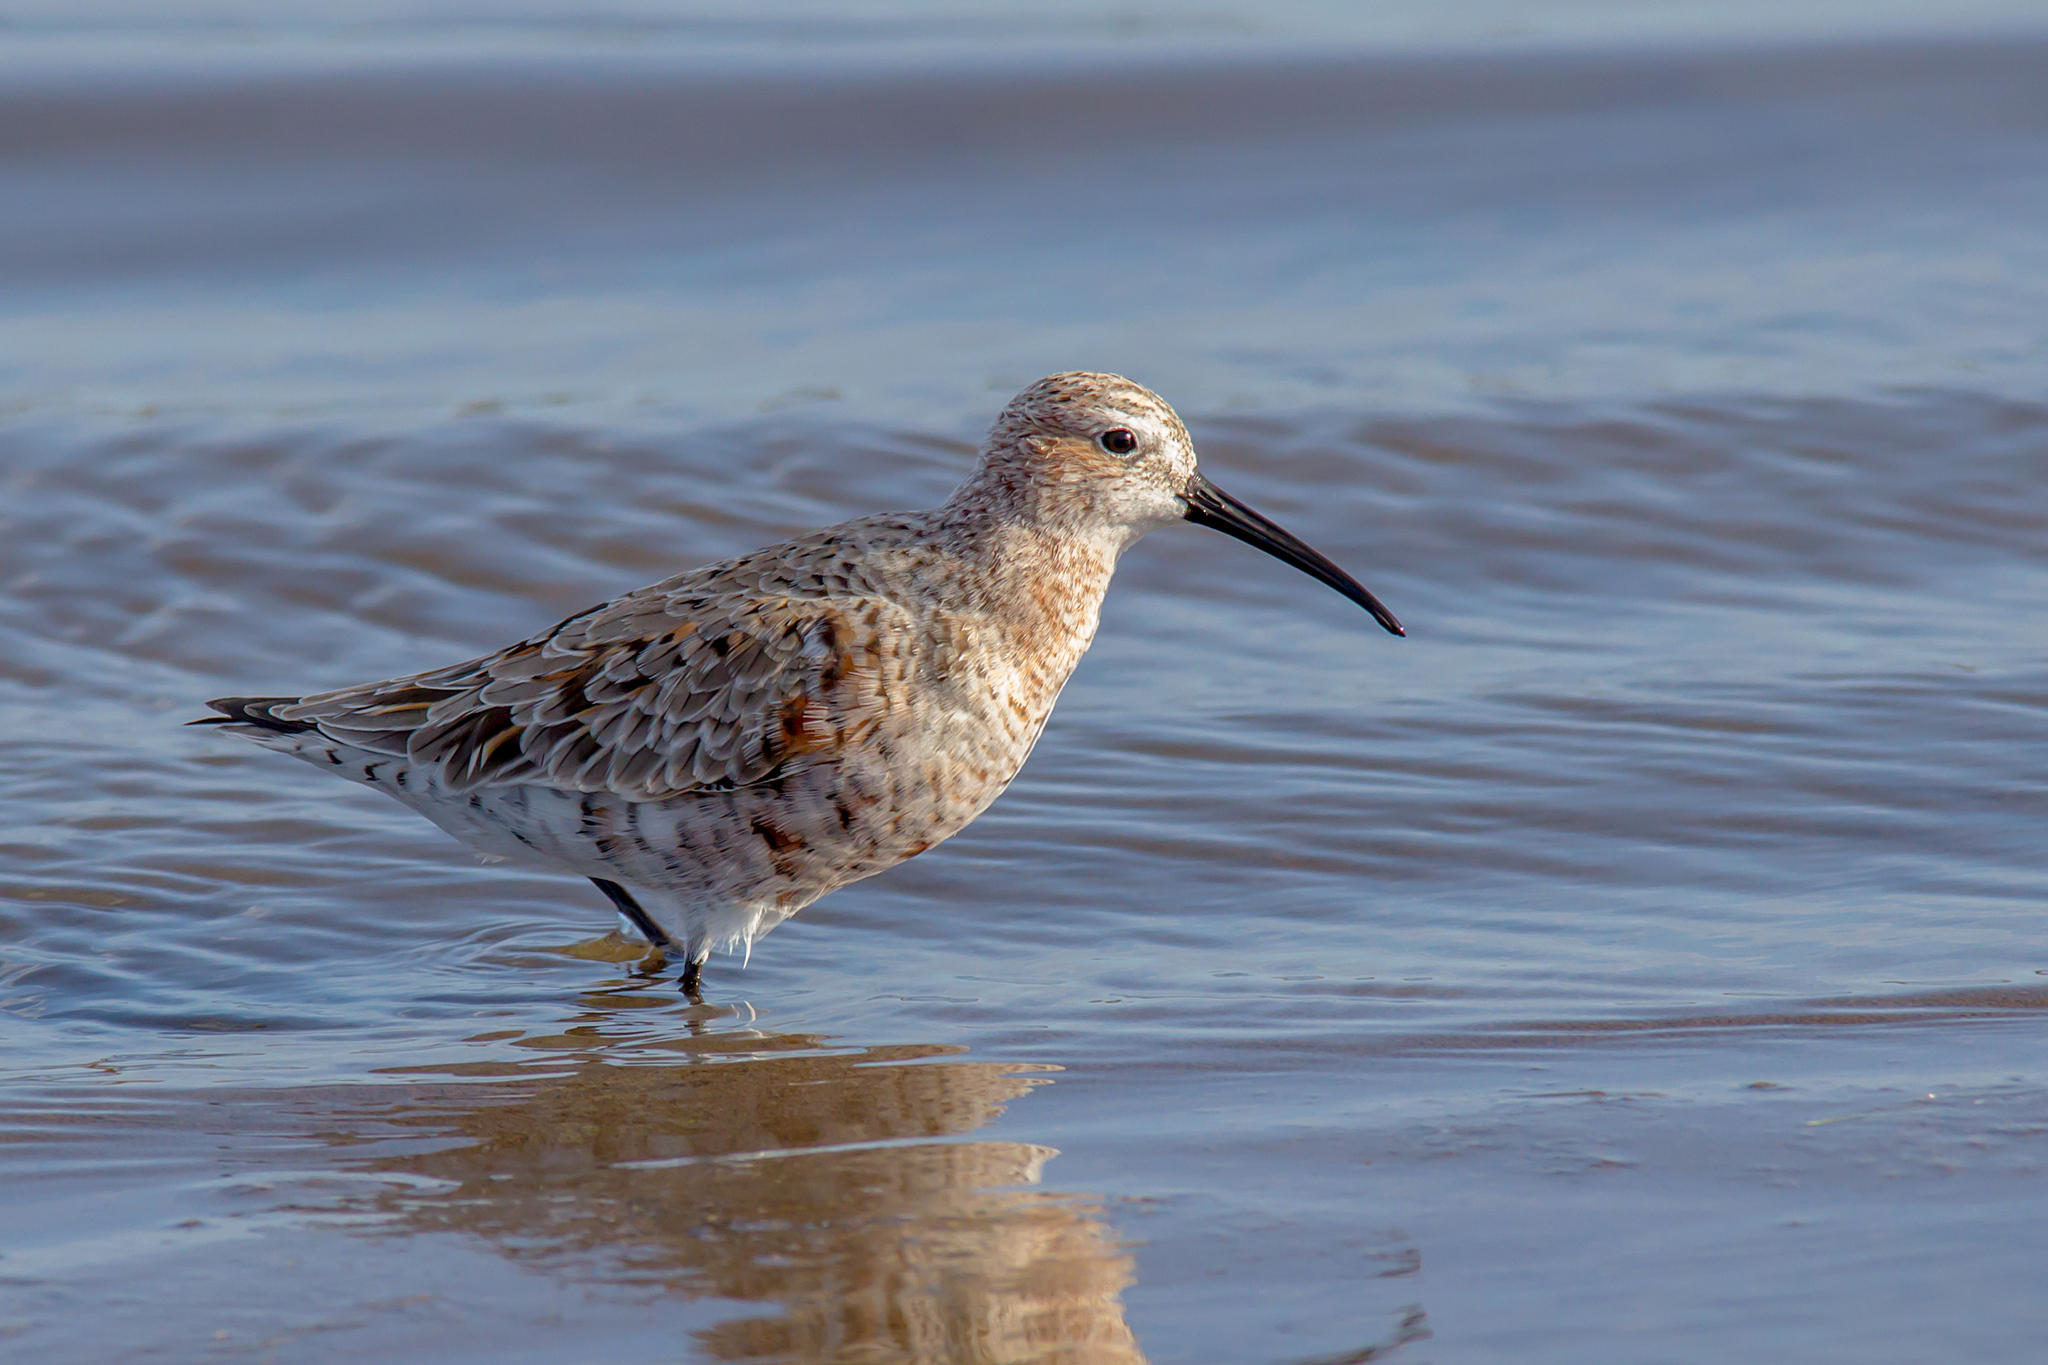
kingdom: Animalia
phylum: Chordata
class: Aves
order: Charadriiformes
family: Scolopacidae
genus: Calidris
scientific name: Calidris ferruginea
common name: Curlew sandpiper
